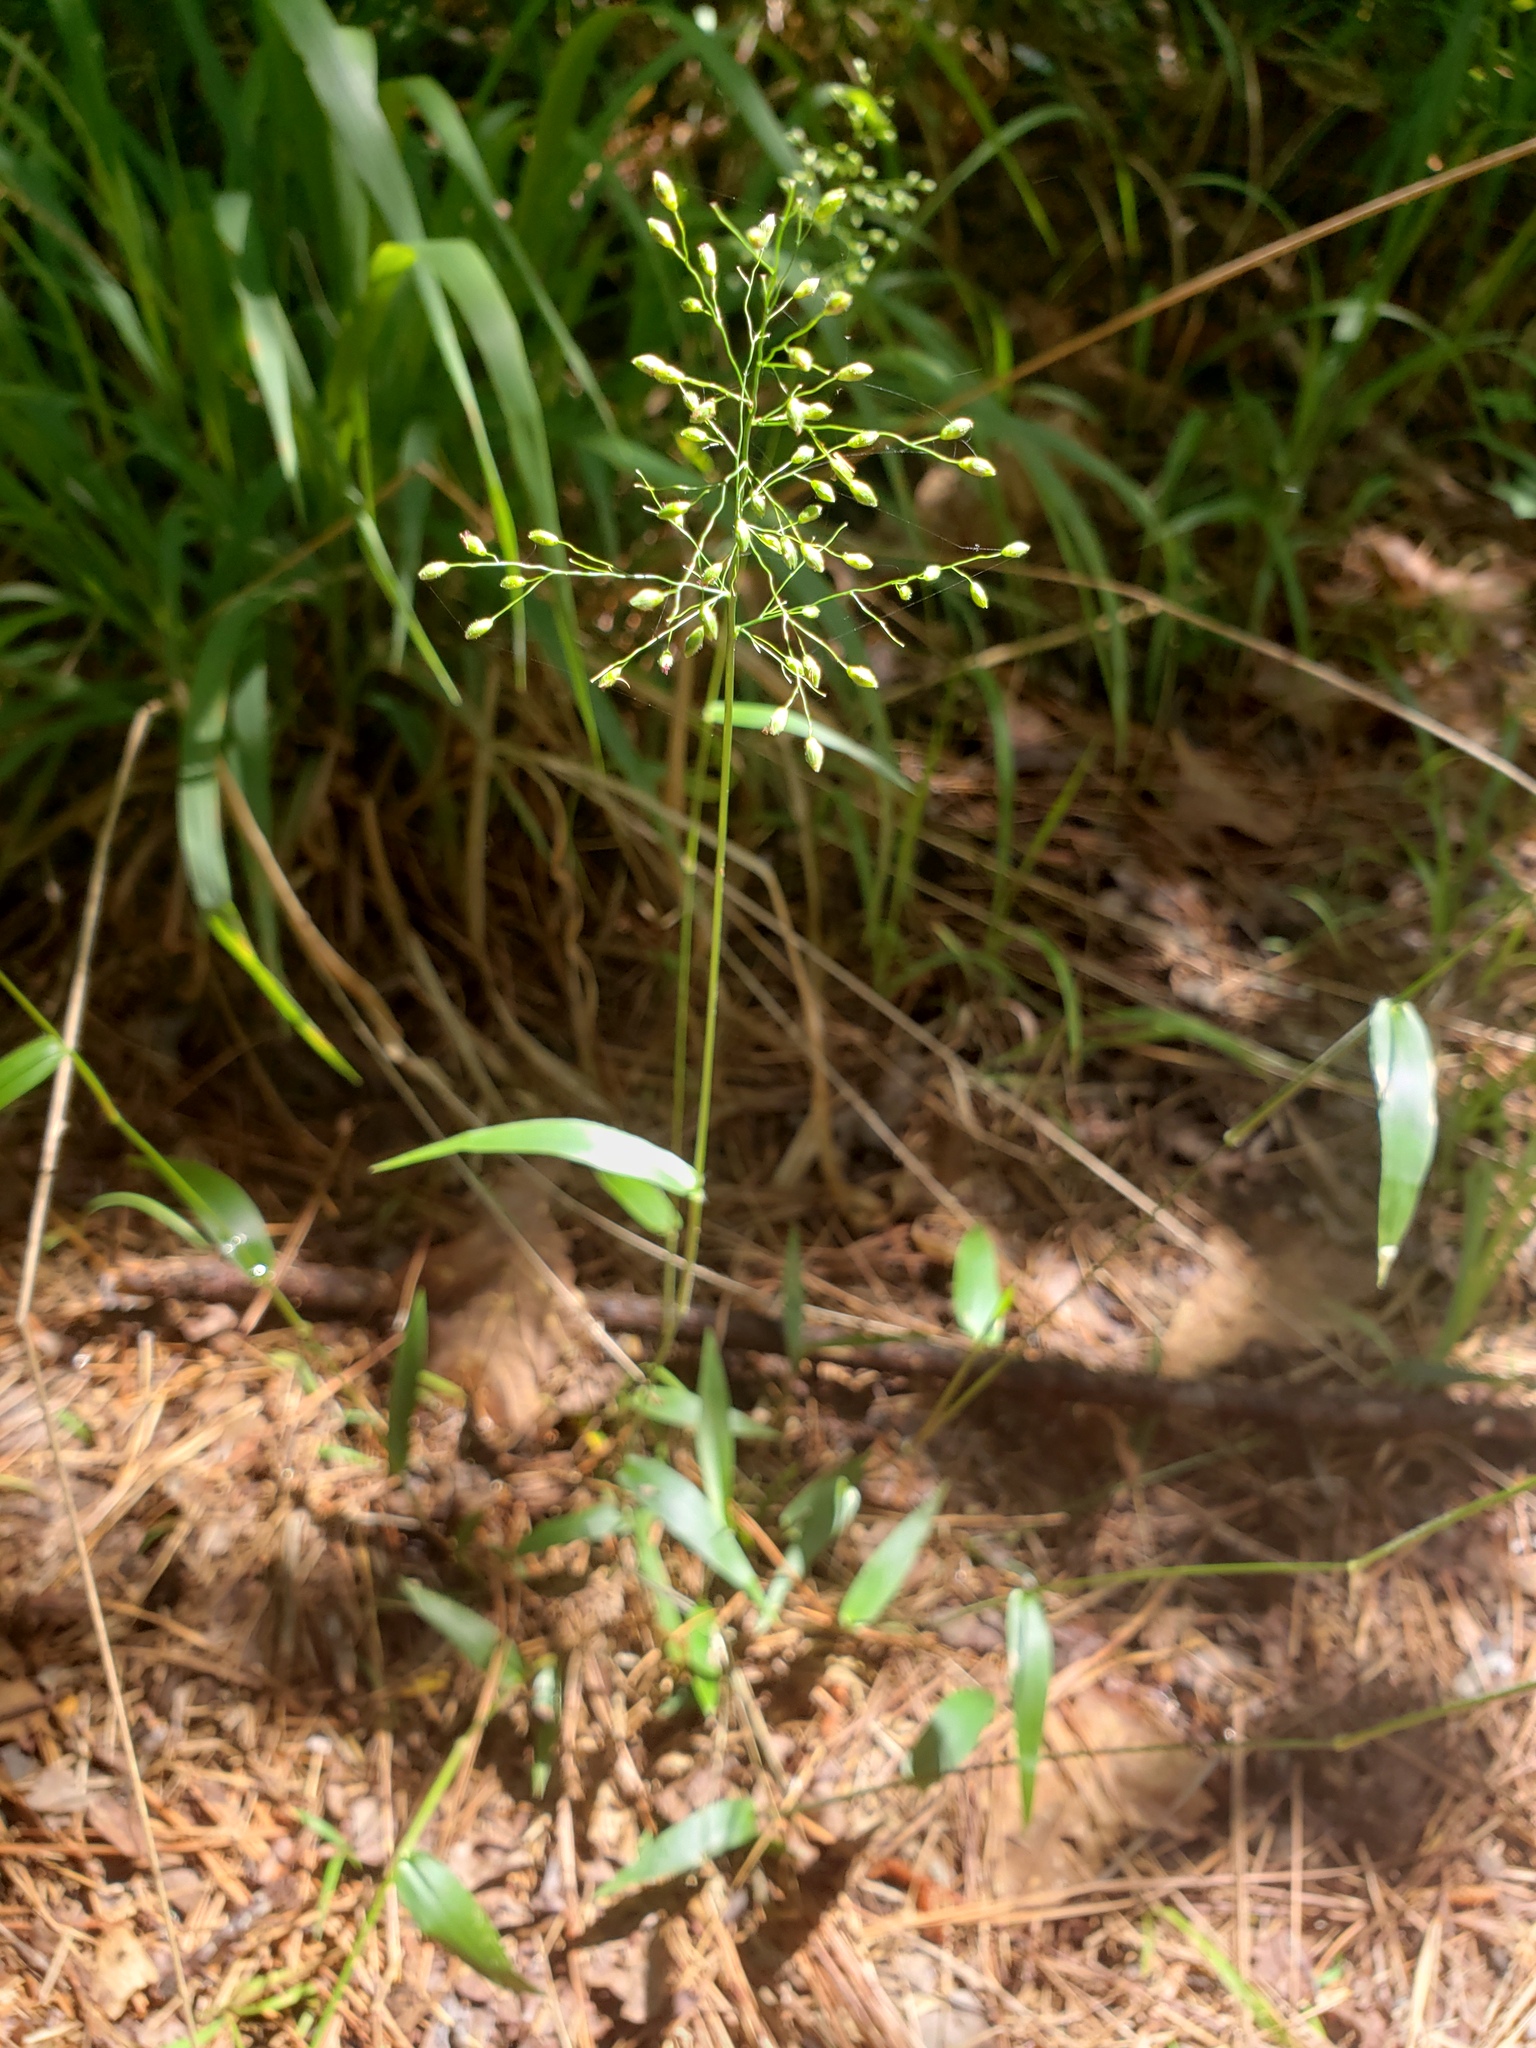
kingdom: Plantae
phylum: Tracheophyta
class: Liliopsida
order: Poales
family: Poaceae
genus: Dichanthelium
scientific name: Dichanthelium boscii
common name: Bosc's panic grass
